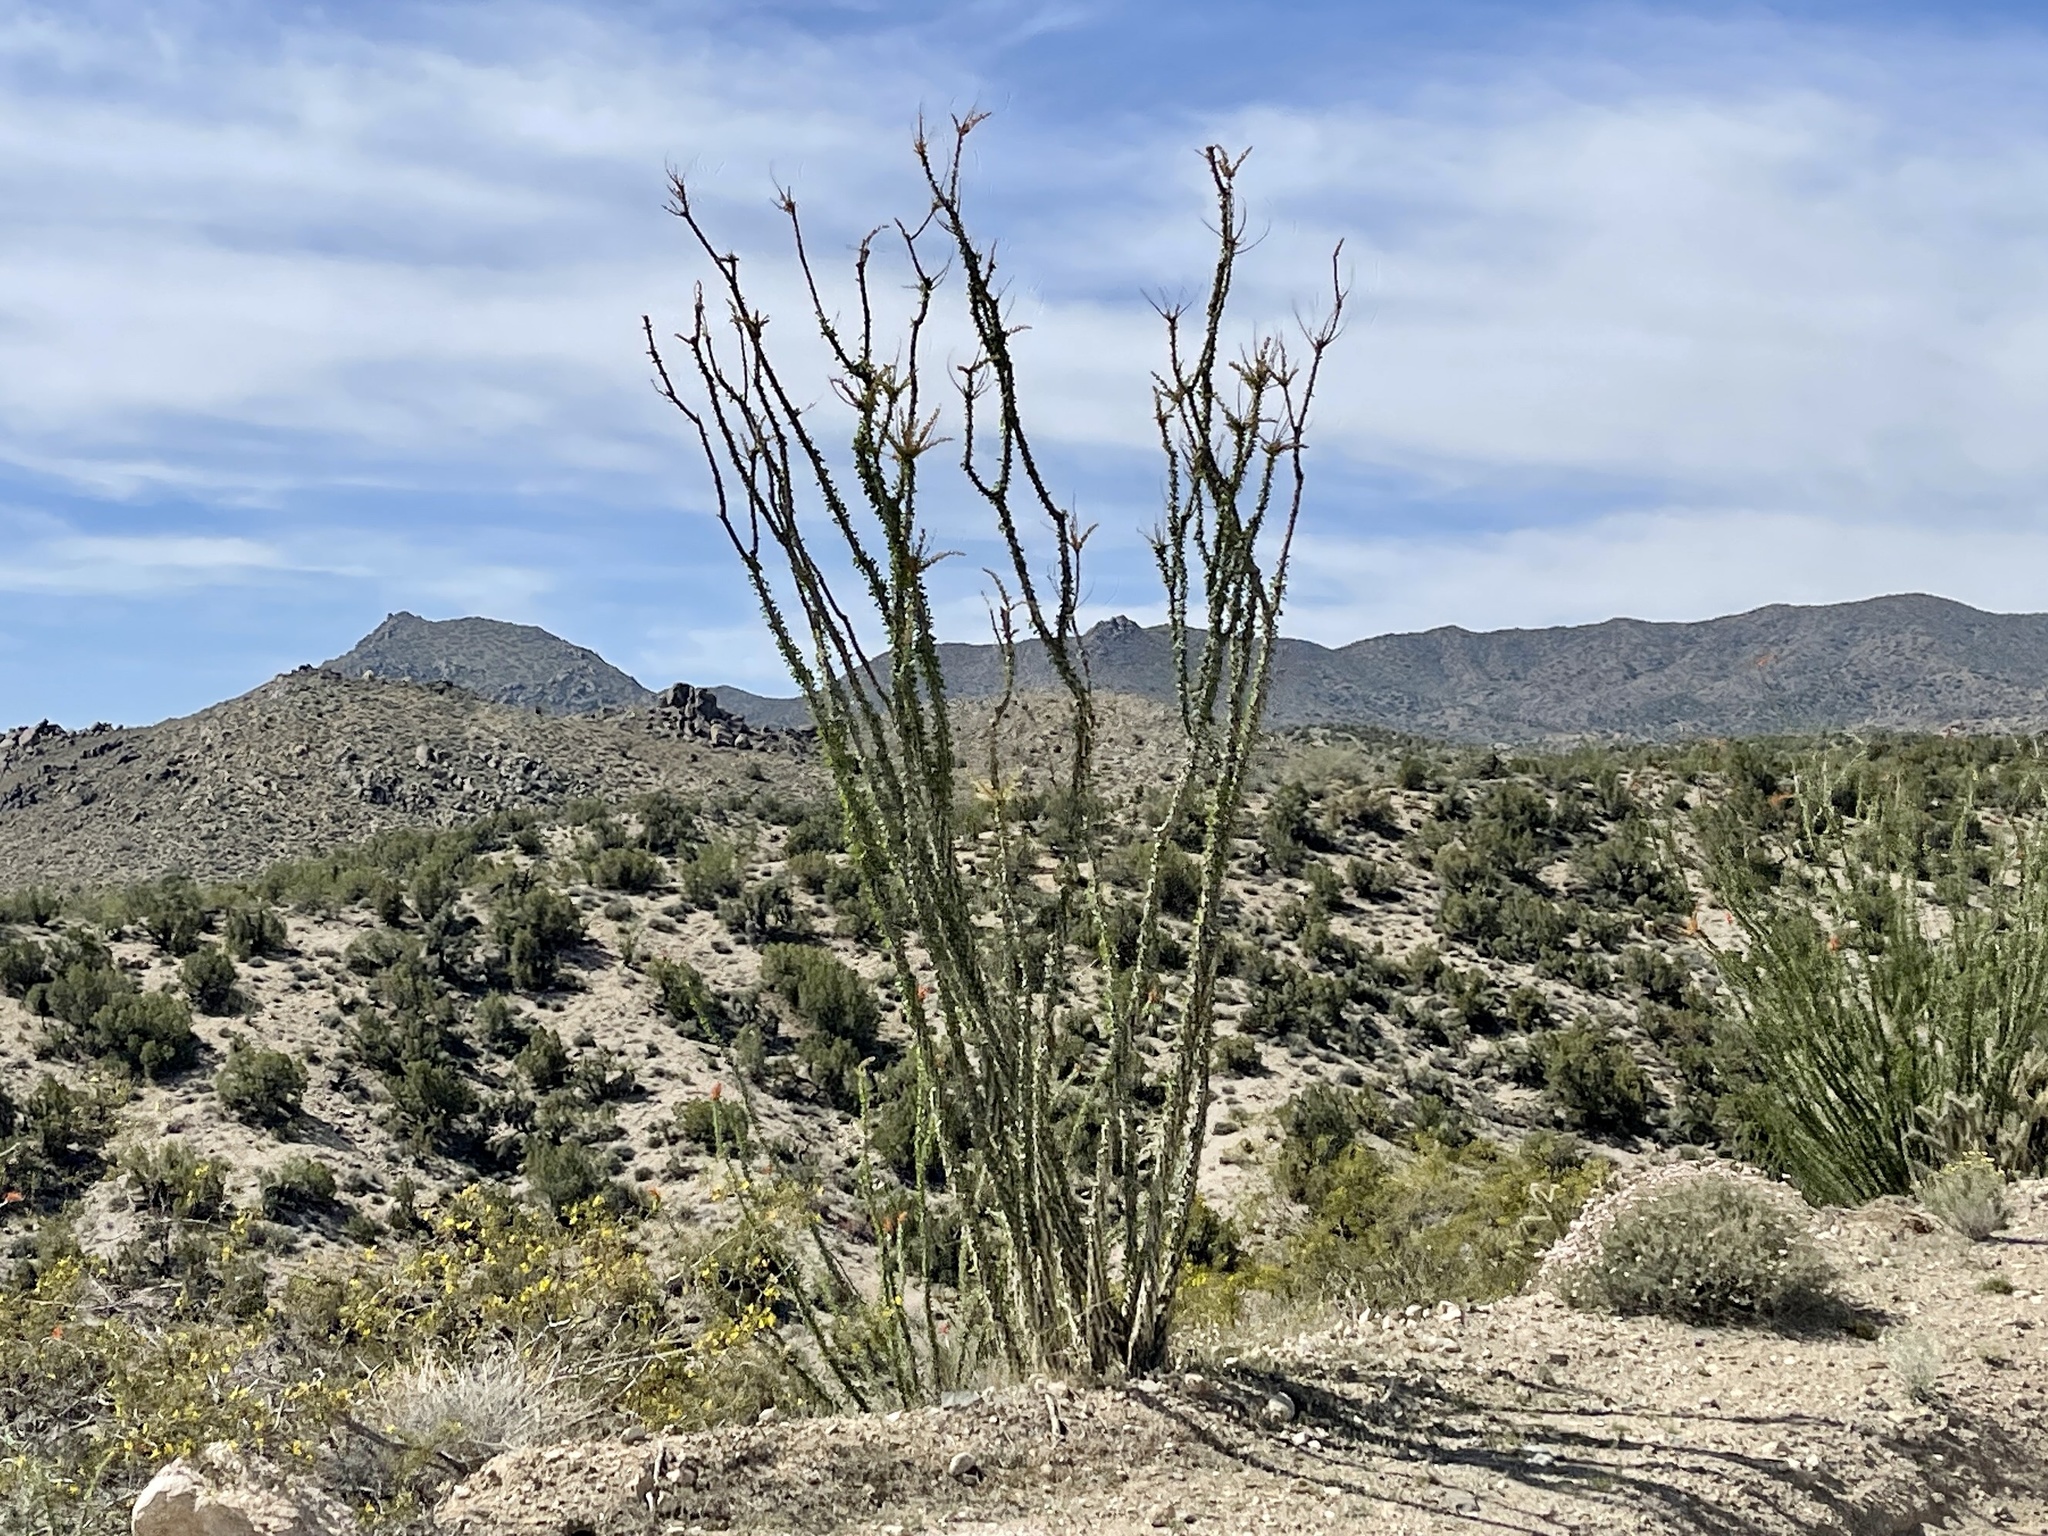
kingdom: Plantae
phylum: Tracheophyta
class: Magnoliopsida
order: Ericales
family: Fouquieriaceae
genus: Fouquieria
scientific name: Fouquieria splendens
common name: Vine-cactus
